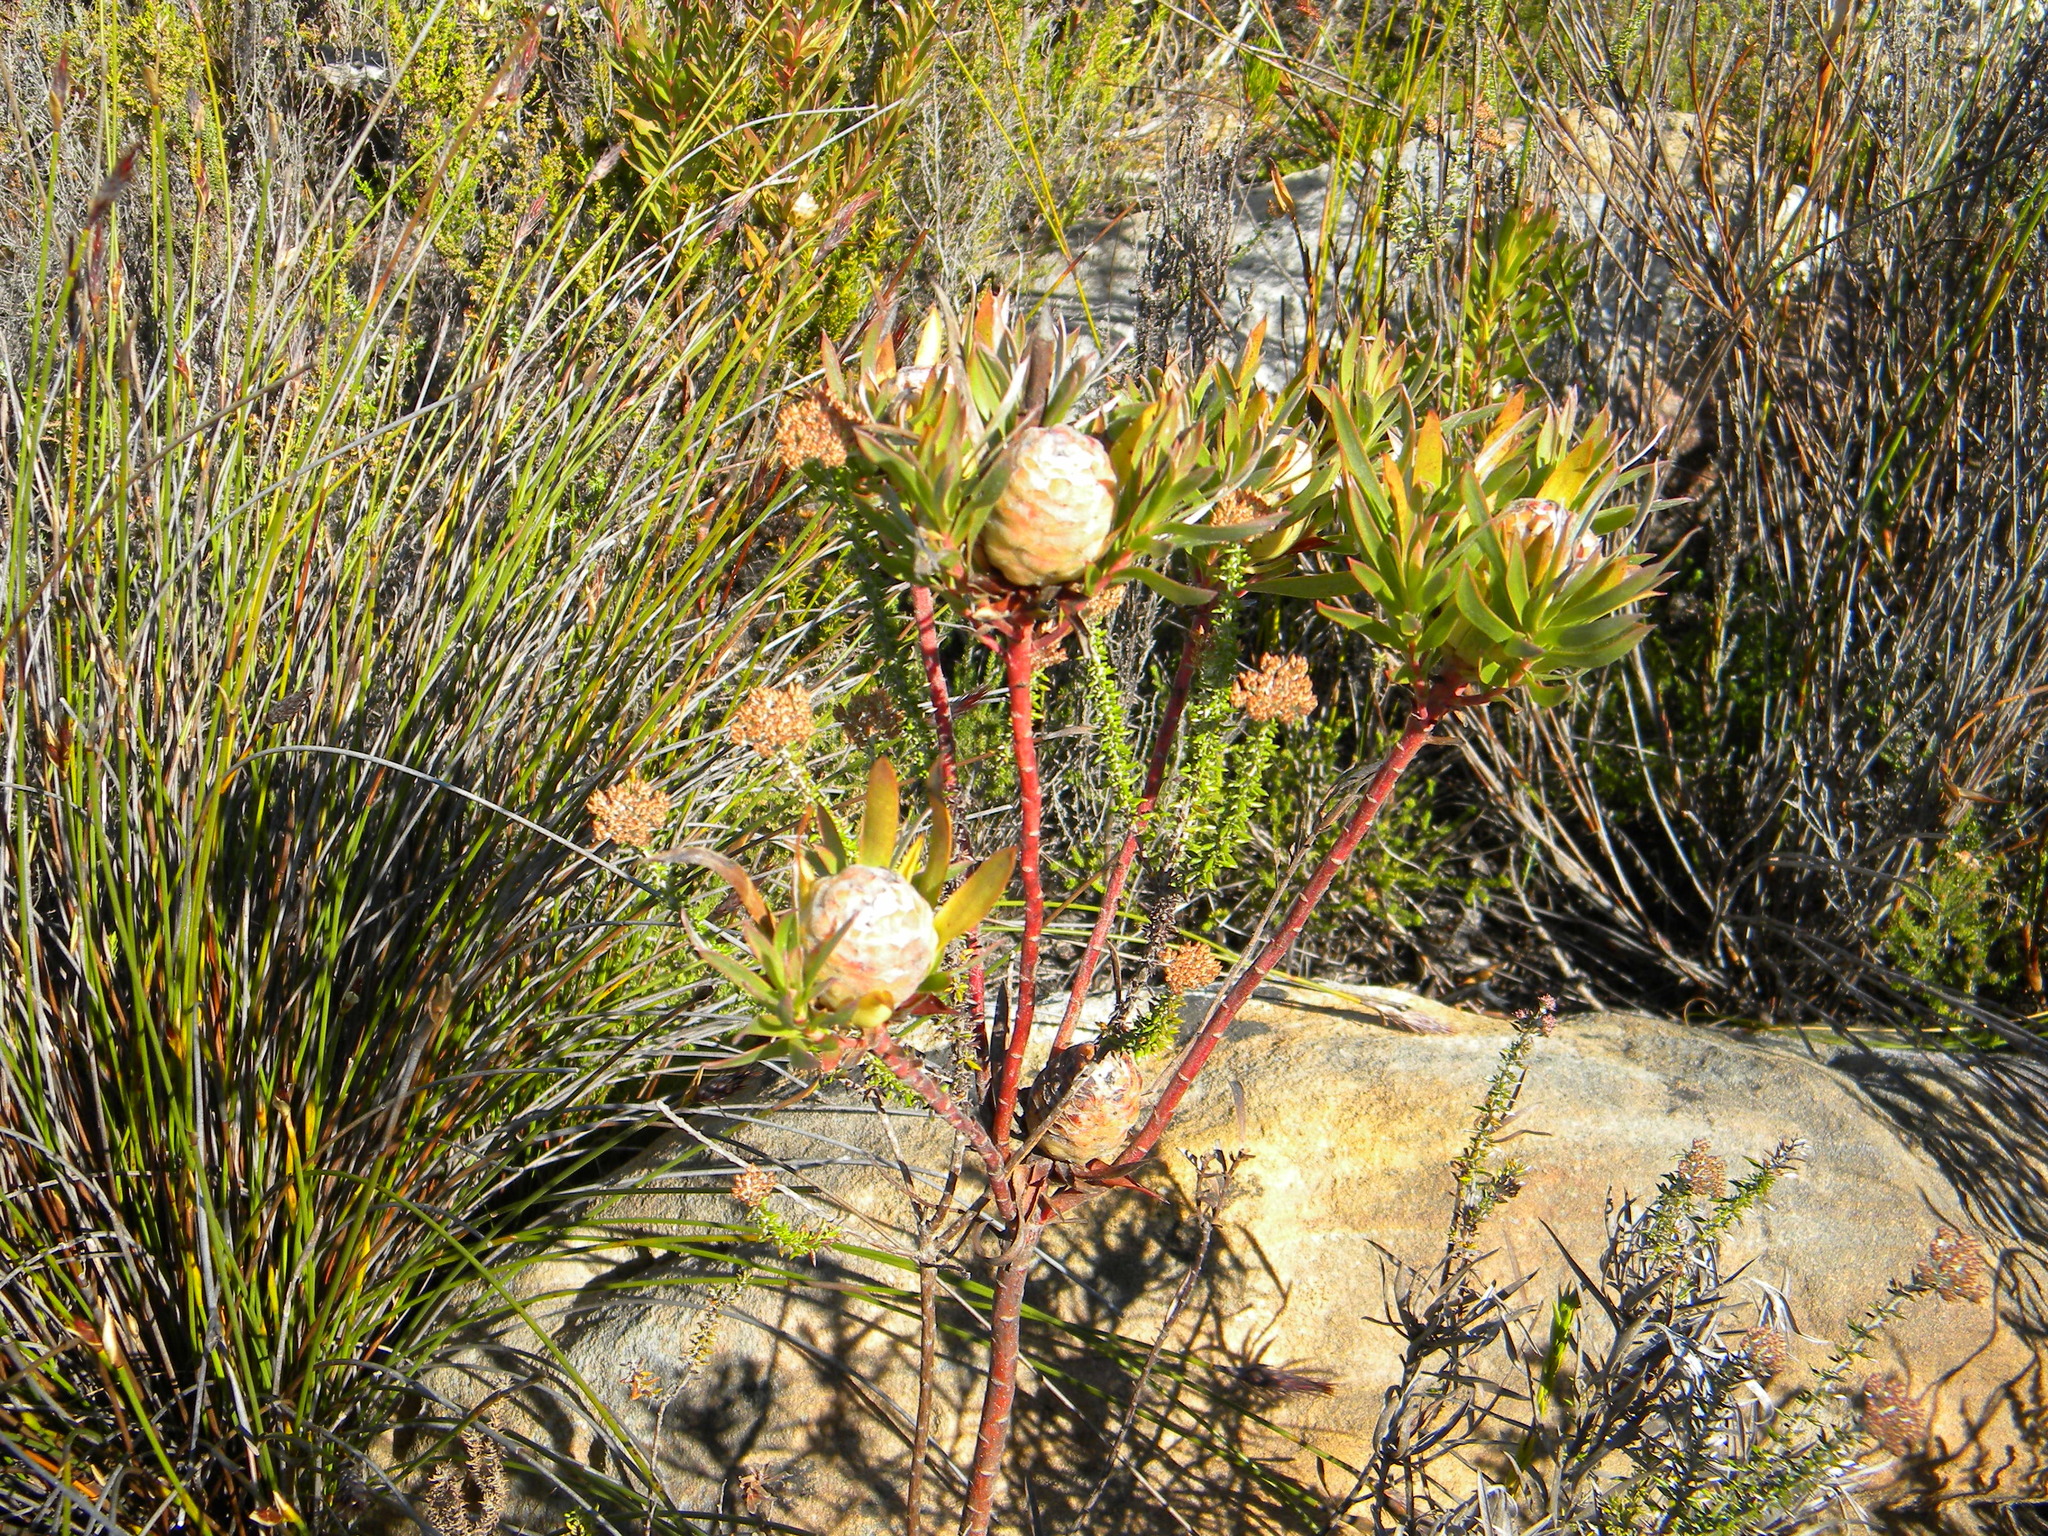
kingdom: Plantae
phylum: Tracheophyta
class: Magnoliopsida
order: Proteales
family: Proteaceae
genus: Leucadendron
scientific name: Leucadendron xanthoconus
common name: Sickle-leaf conebush
